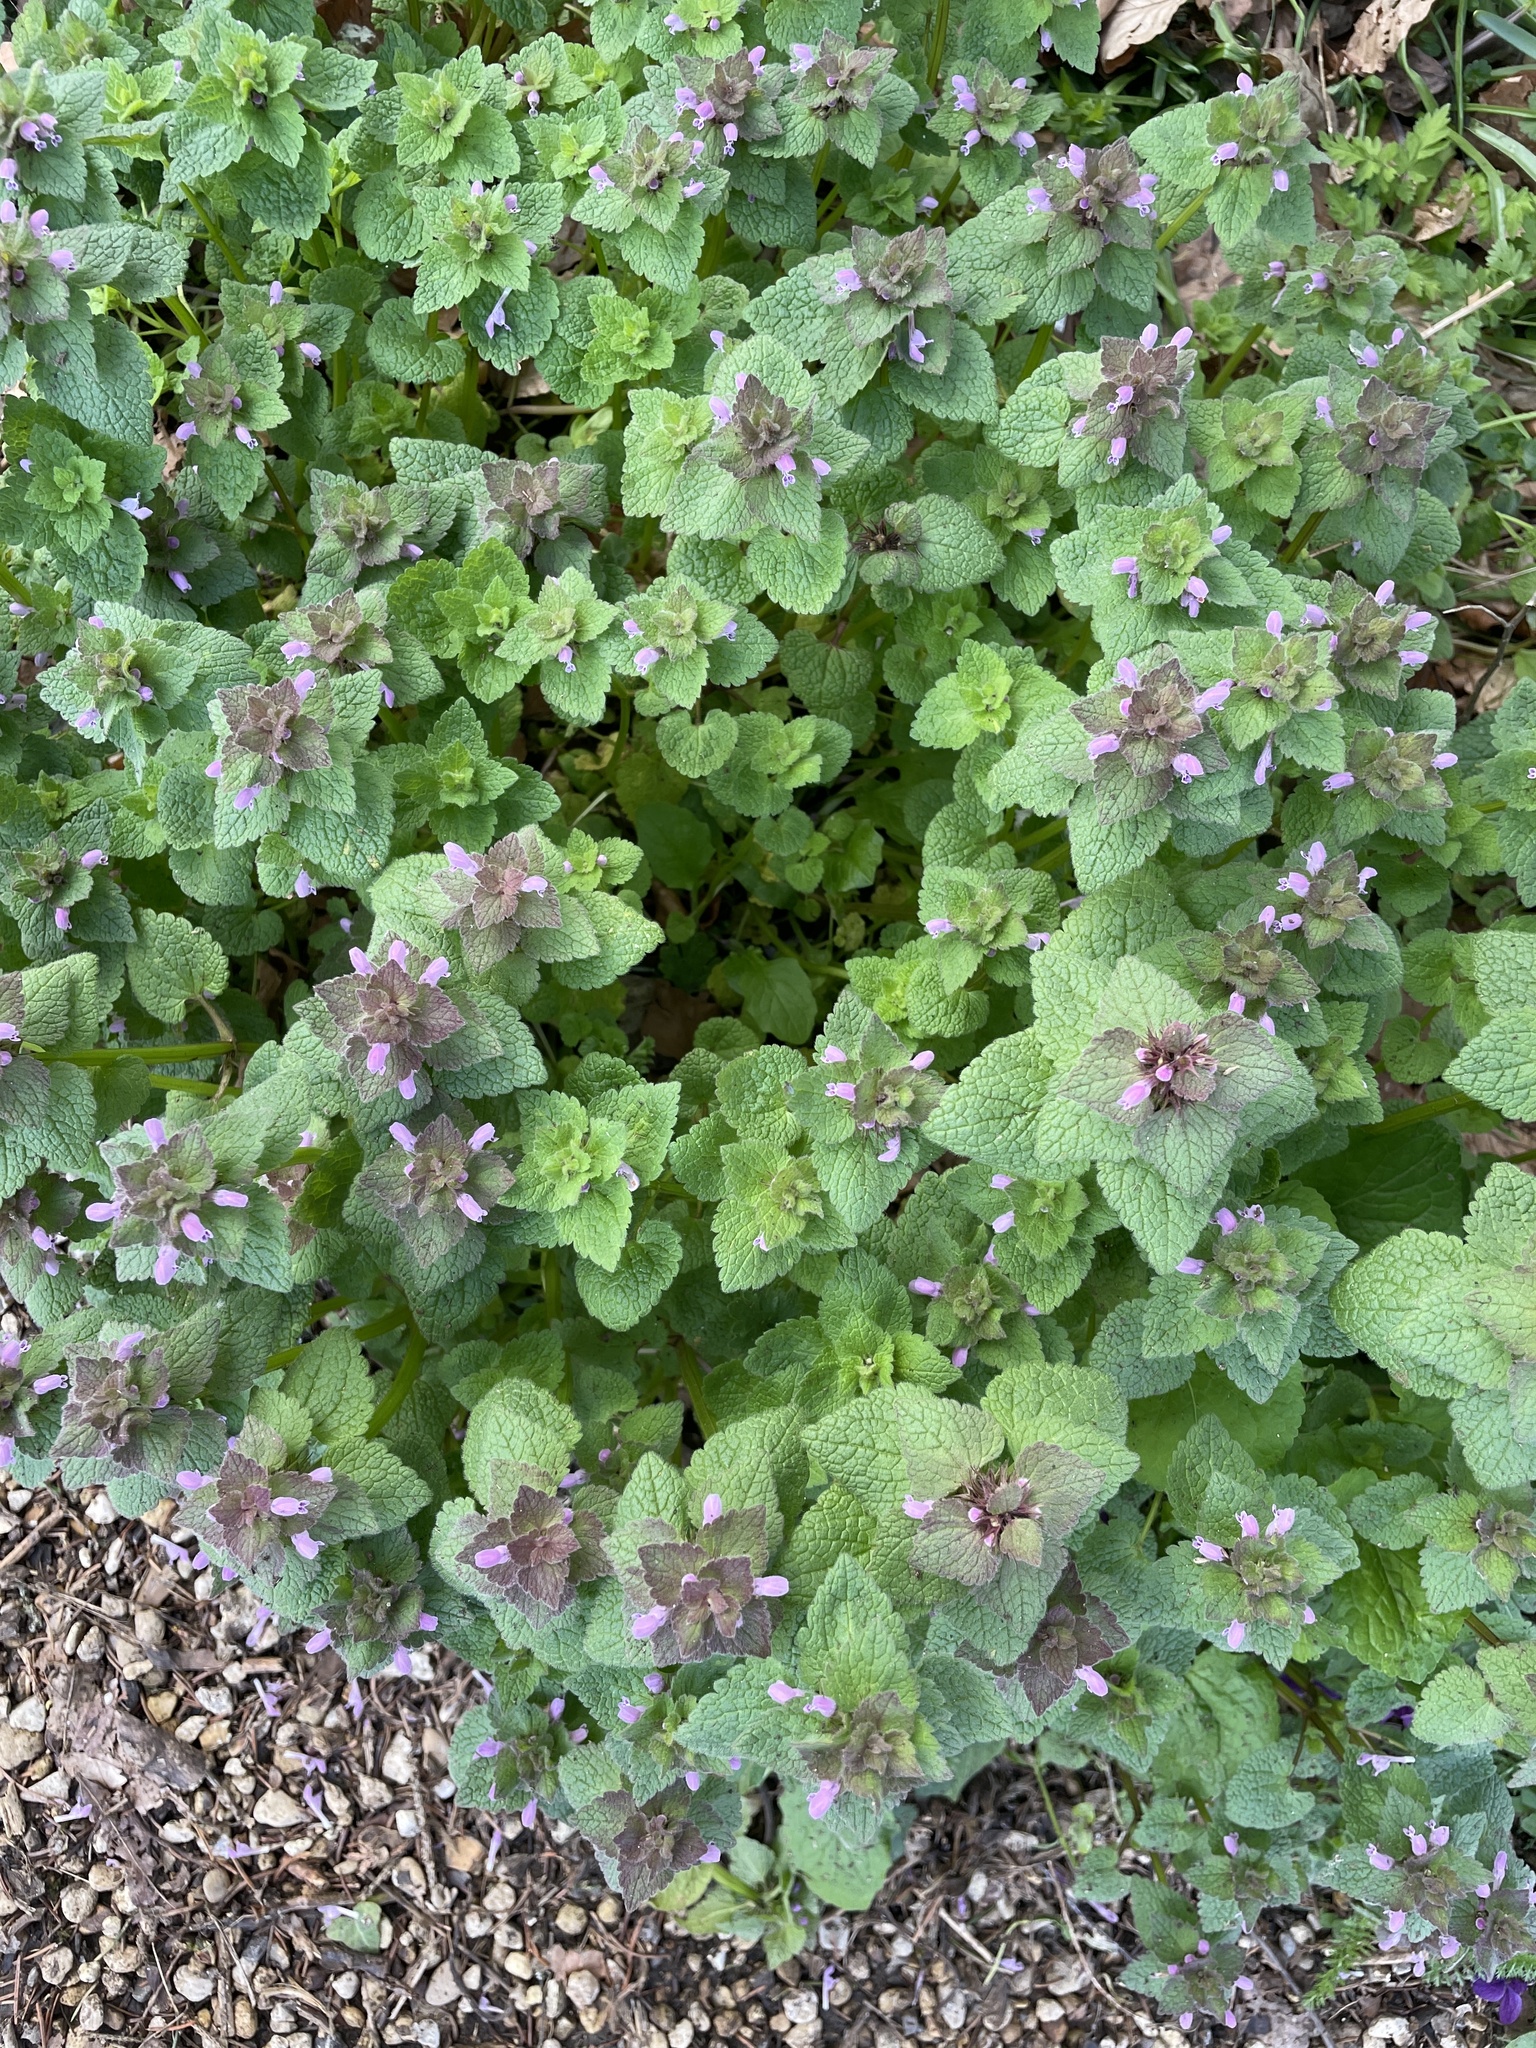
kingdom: Plantae
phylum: Tracheophyta
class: Magnoliopsida
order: Lamiales
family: Lamiaceae
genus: Lamium
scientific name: Lamium purpureum
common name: Red dead-nettle
